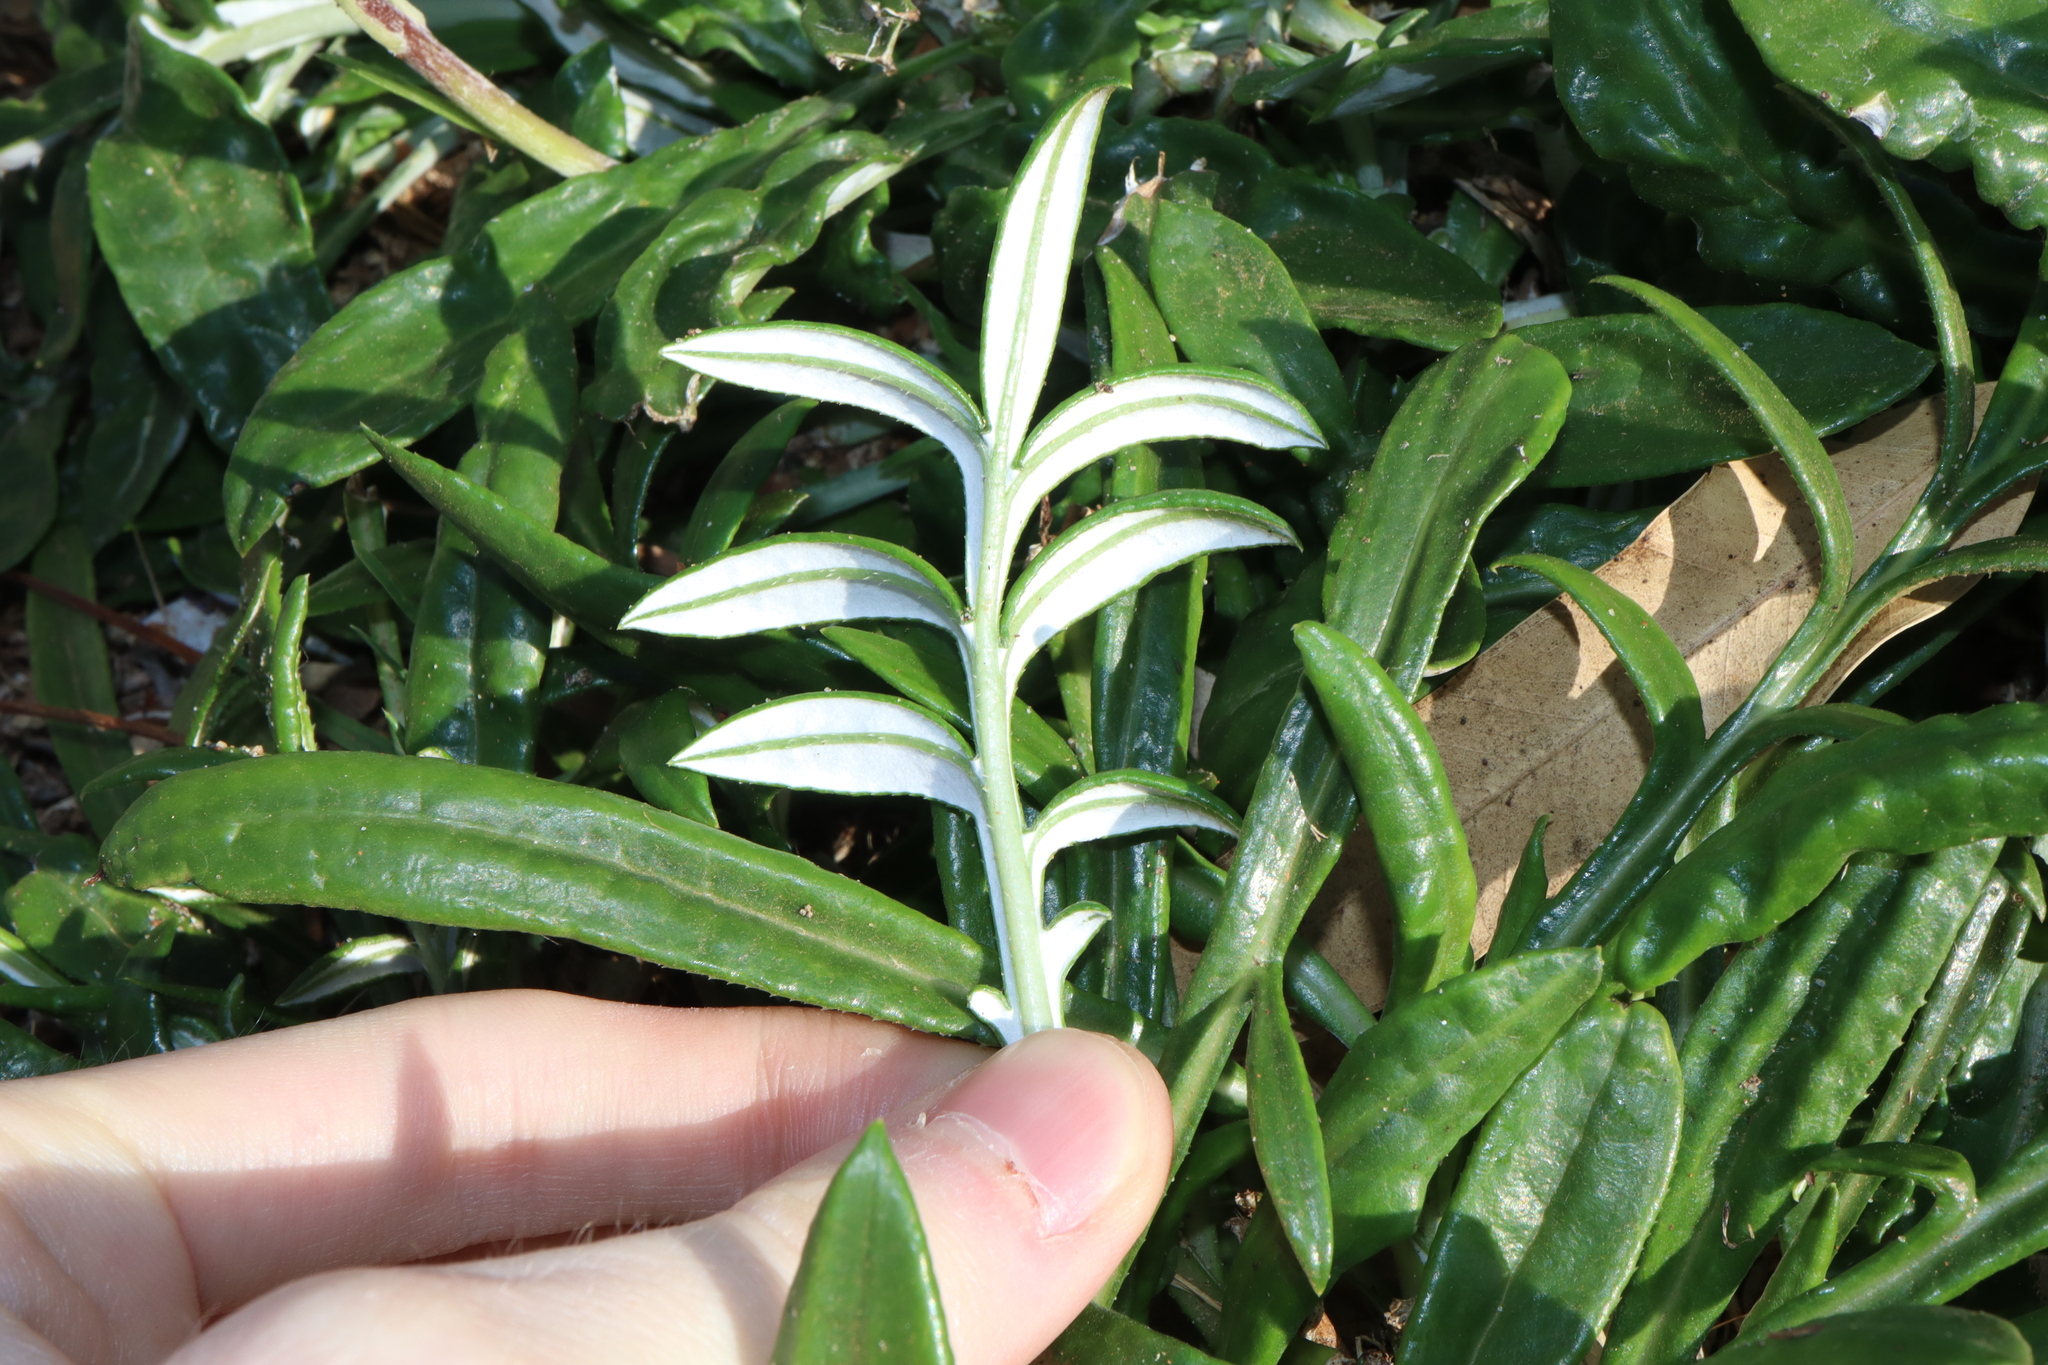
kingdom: Plantae
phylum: Tracheophyta
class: Magnoliopsida
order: Asterales
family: Asteraceae
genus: Gazania
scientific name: Gazania splendens
